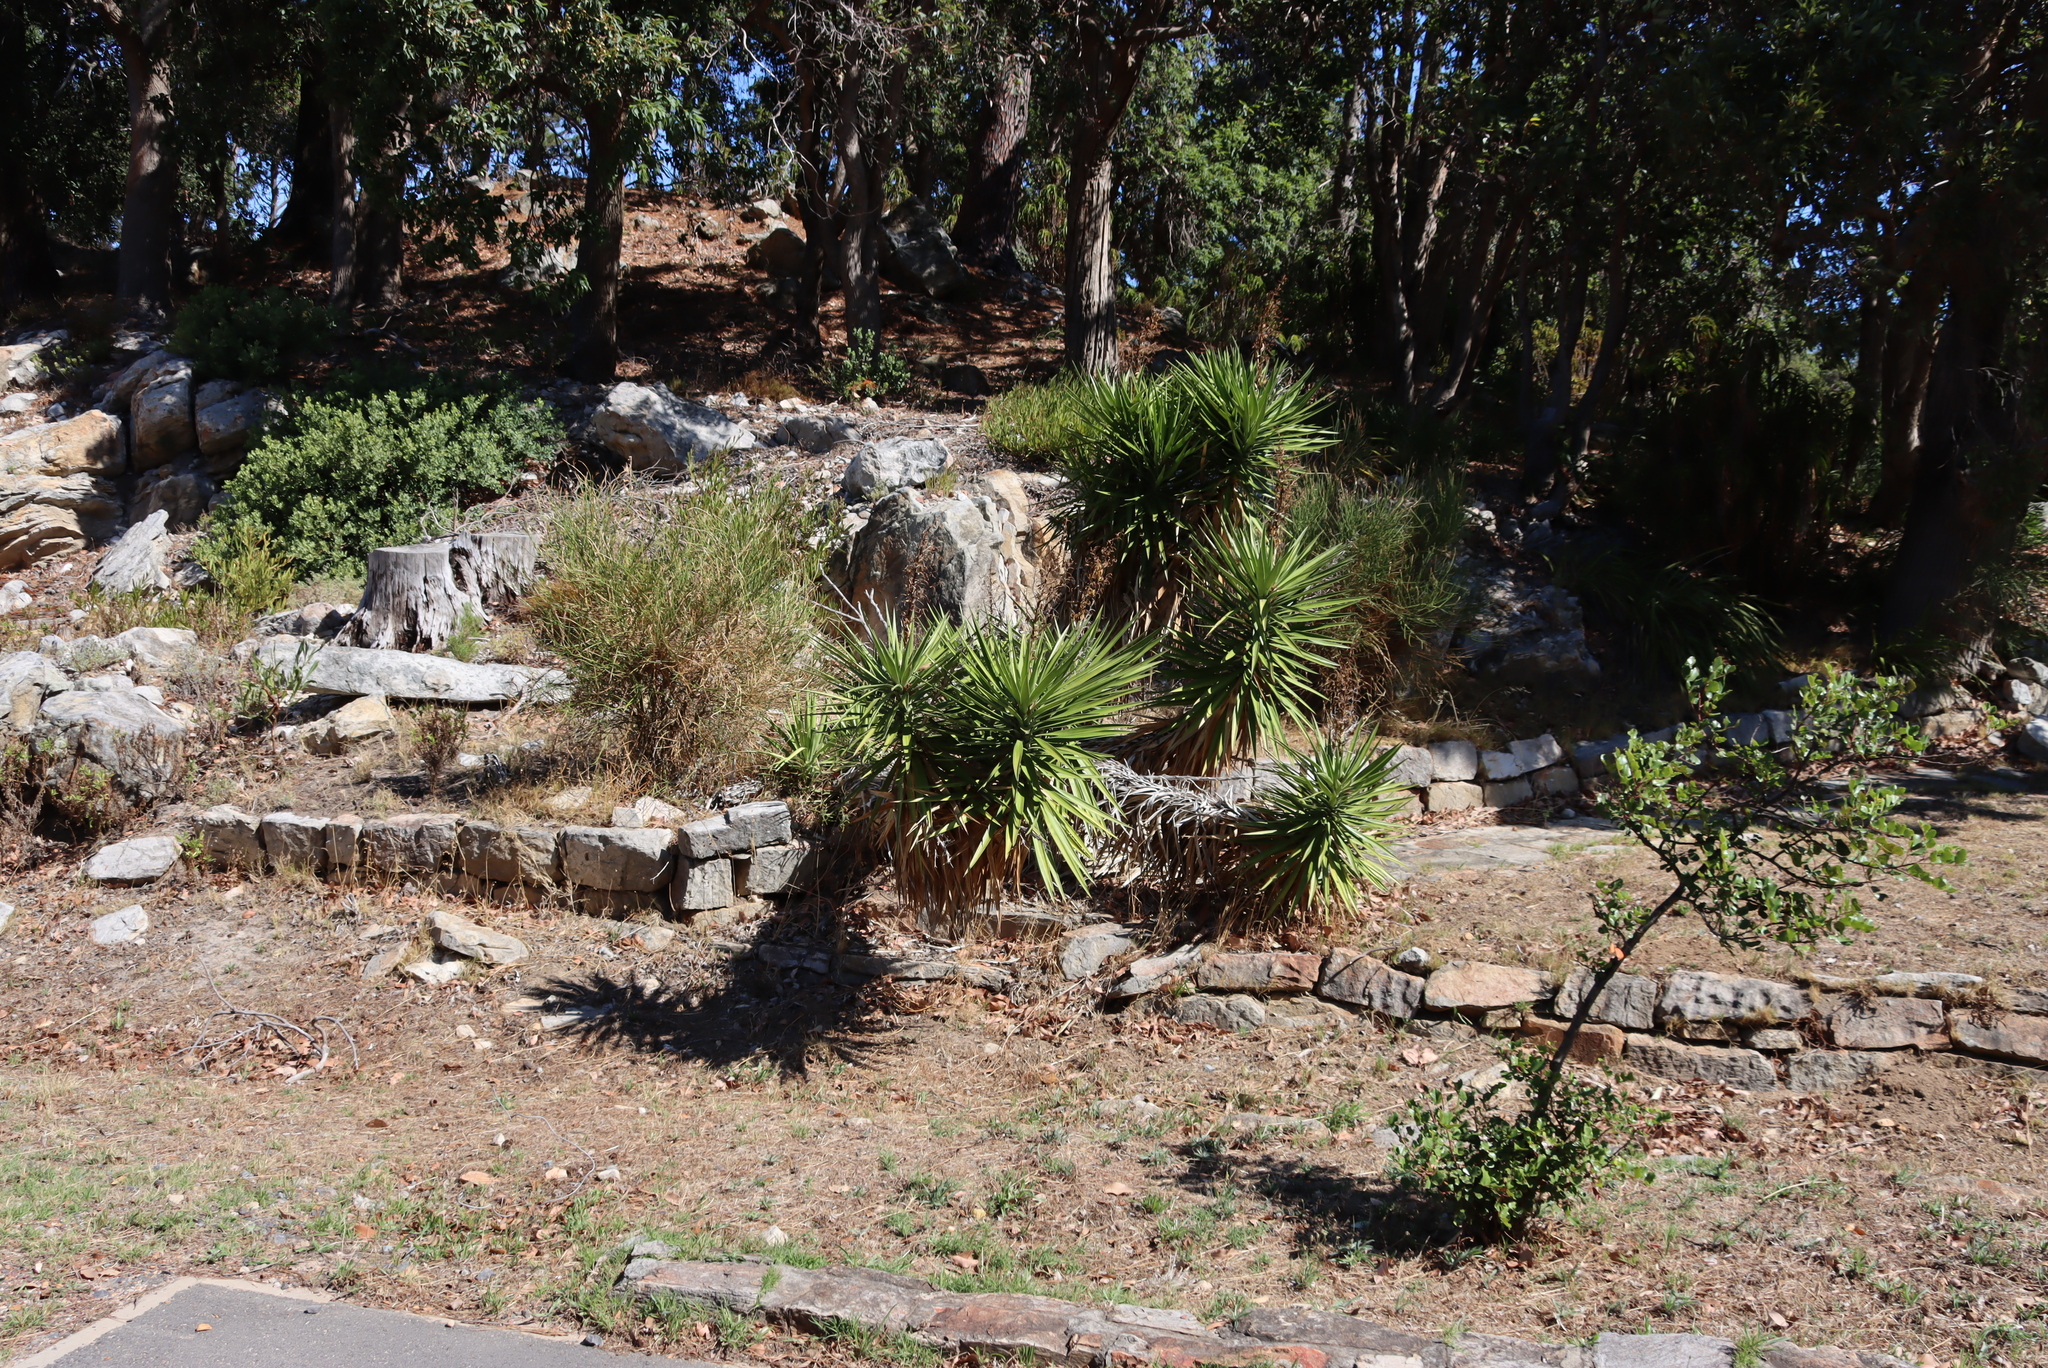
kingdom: Plantae
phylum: Tracheophyta
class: Liliopsida
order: Asparagales
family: Asparagaceae
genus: Yucca
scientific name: Yucca aloifolia
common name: Aloe yucca
